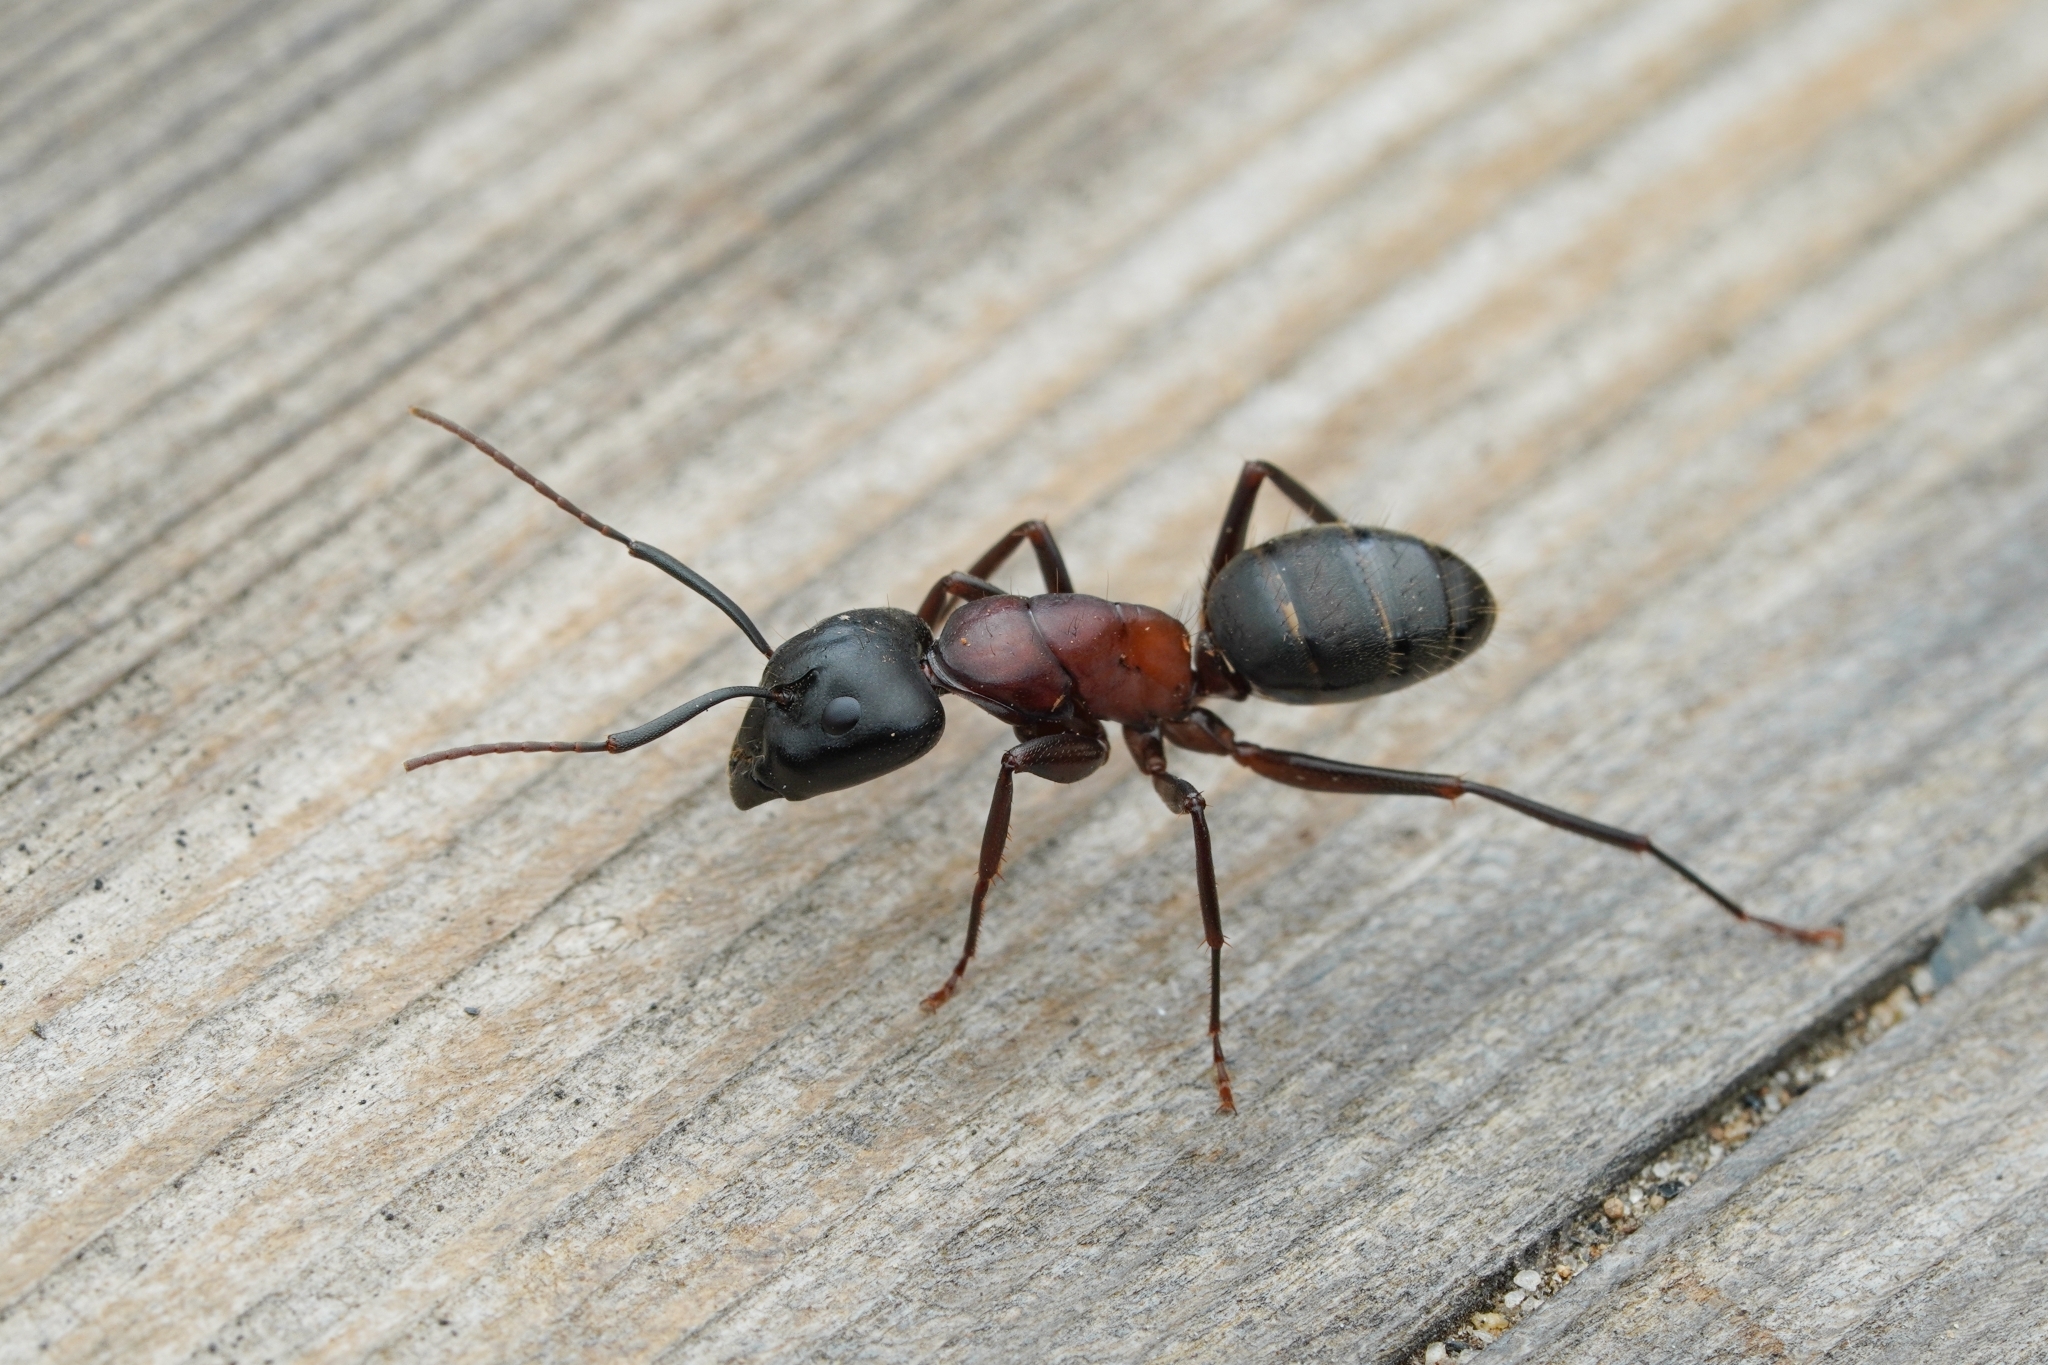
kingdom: Animalia
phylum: Arthropoda
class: Insecta
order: Hymenoptera
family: Formicidae
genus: Camponotus
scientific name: Camponotus vicinus
